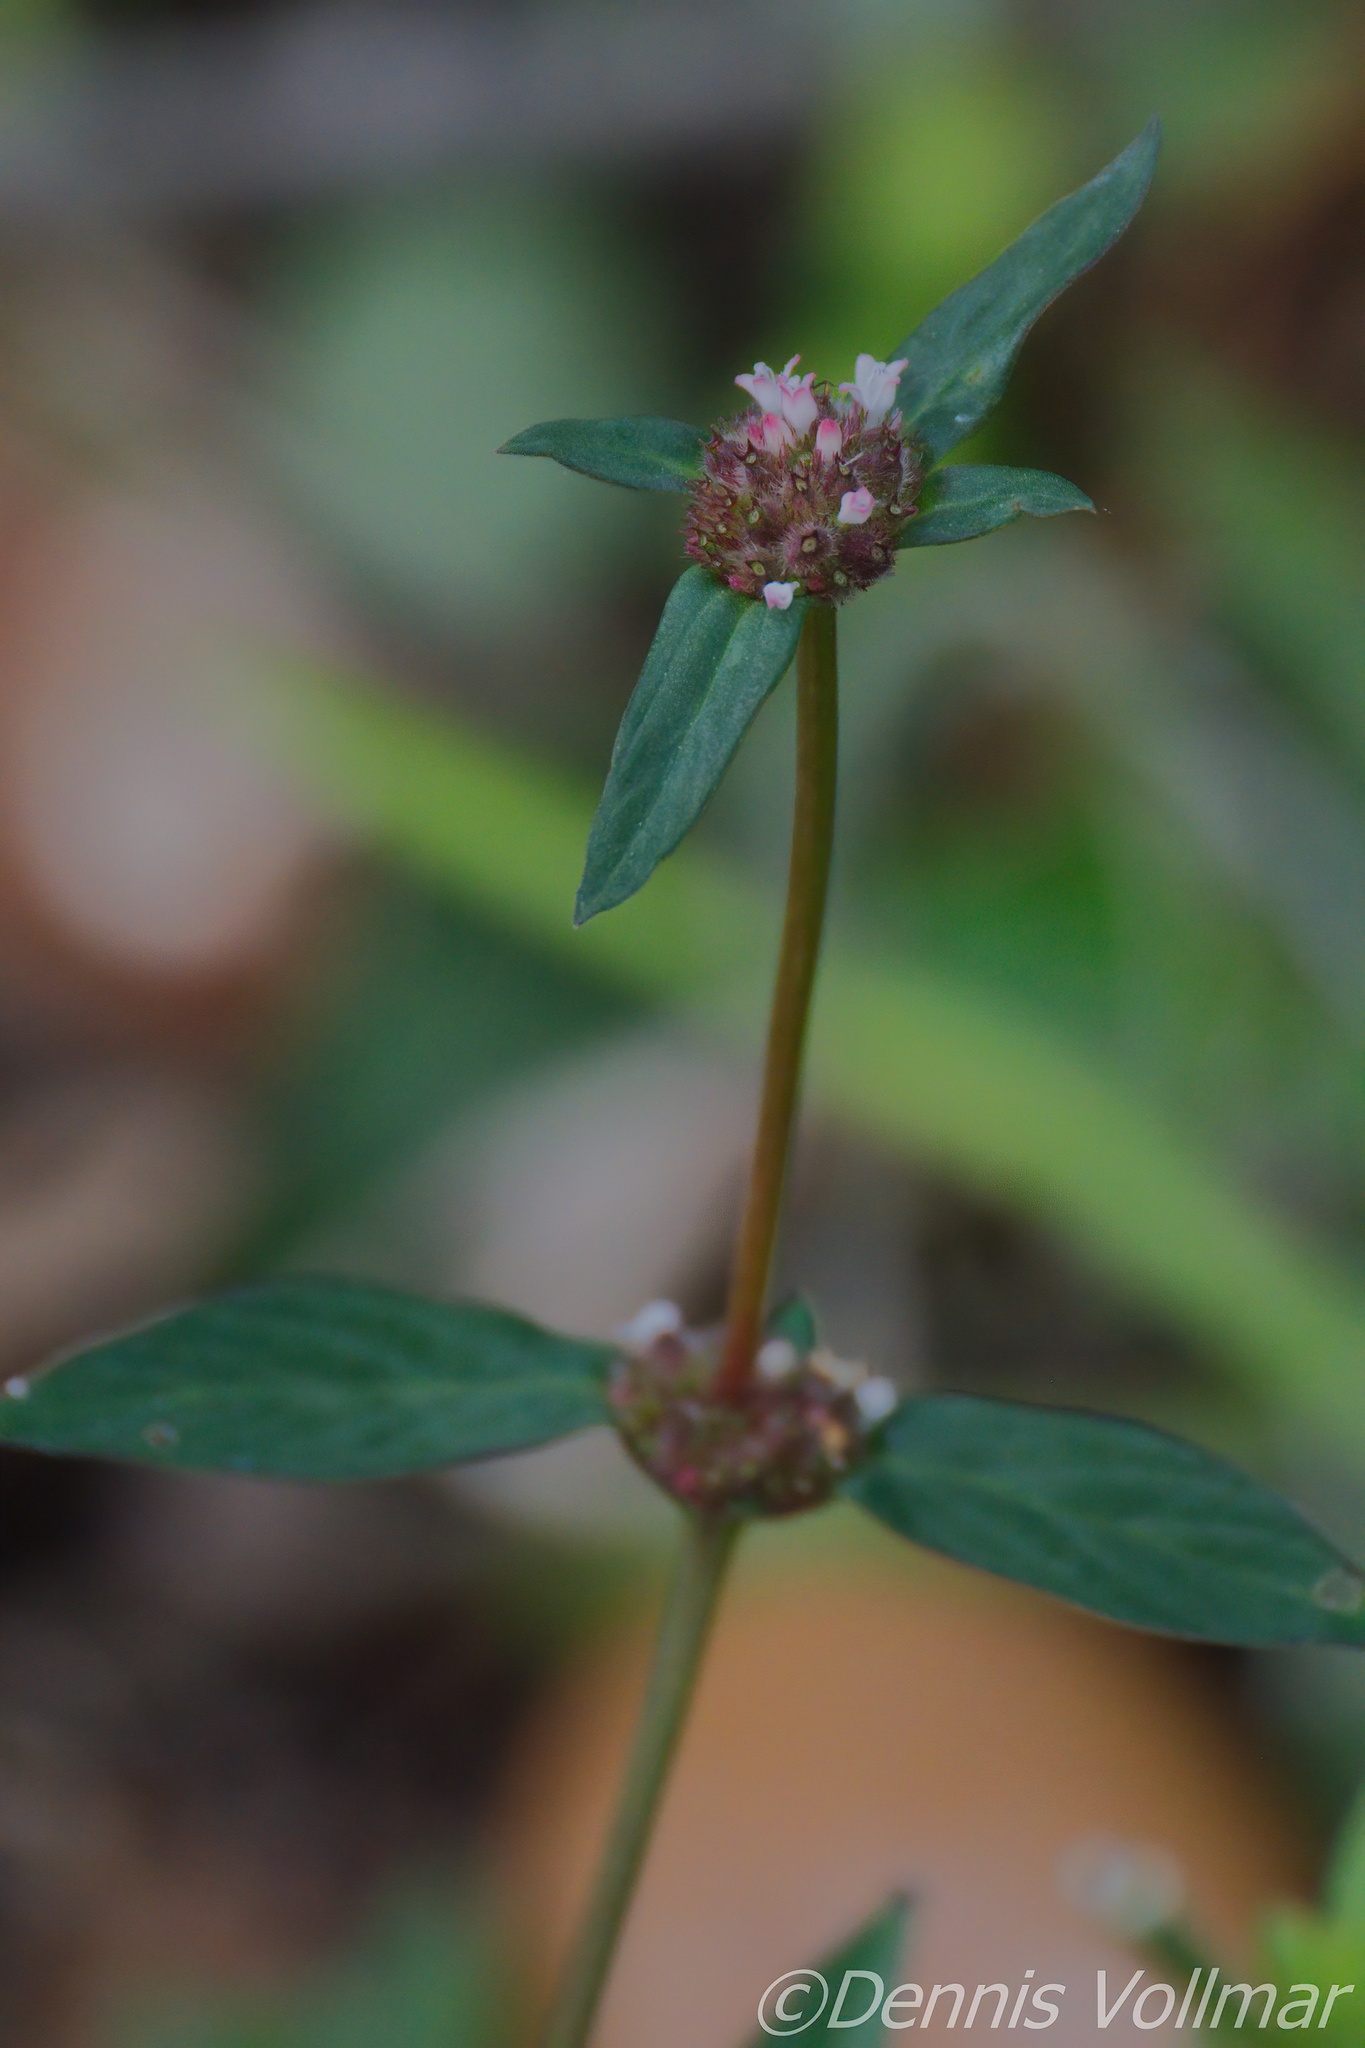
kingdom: Plantae
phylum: Tracheophyta
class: Magnoliopsida
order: Gentianales
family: Rubiaceae
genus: Spermacoce
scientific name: Spermacoce remota
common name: Woodland false buttonweed
